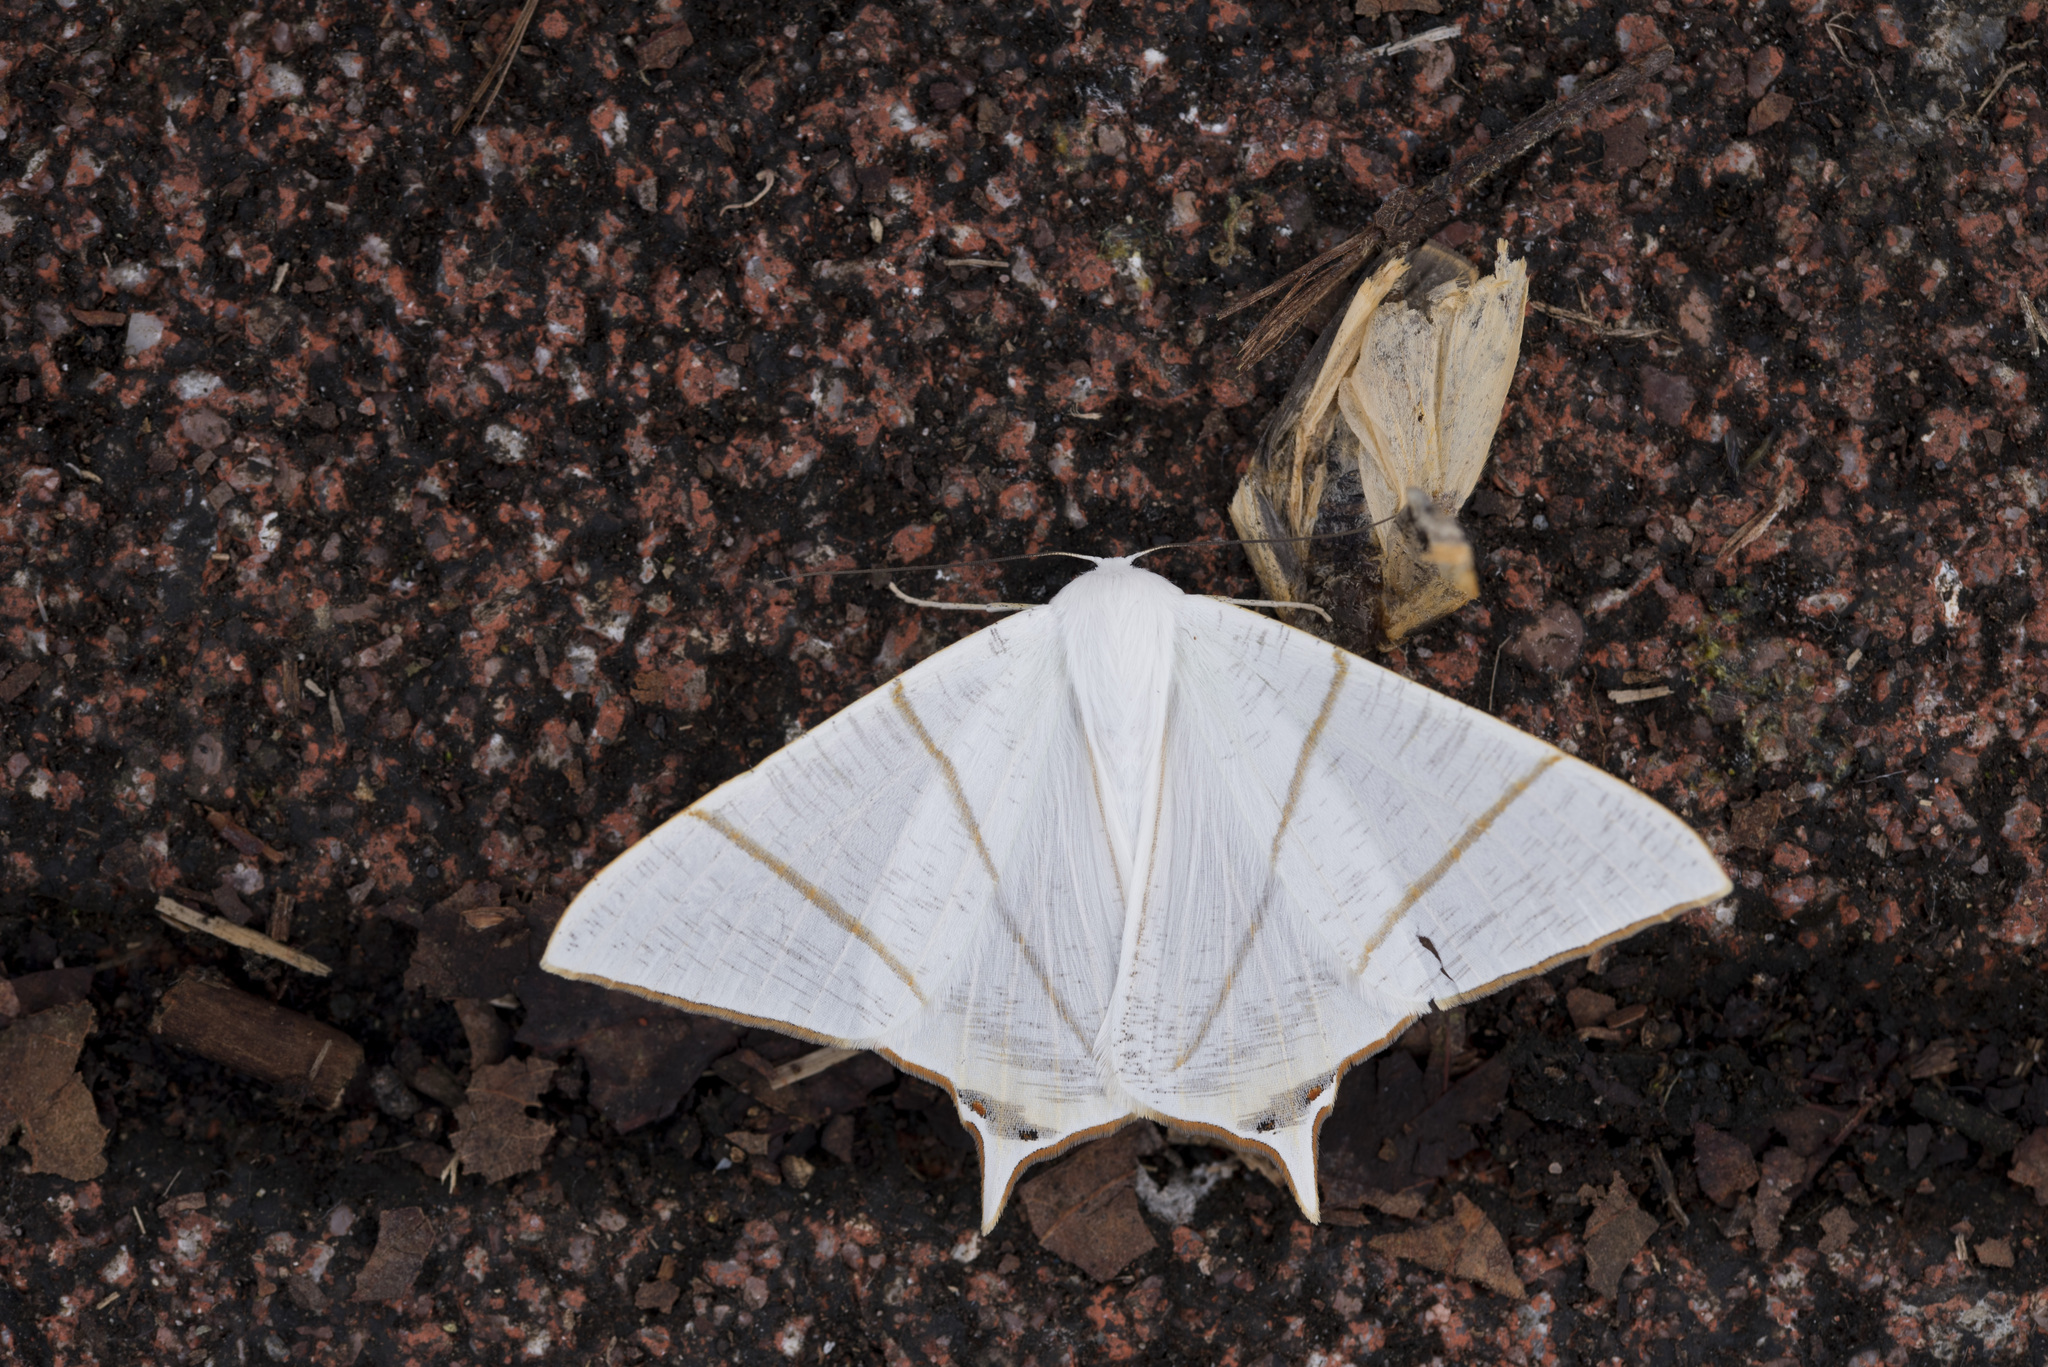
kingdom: Animalia
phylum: Arthropoda
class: Insecta
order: Lepidoptera
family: Geometridae
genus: Ourapteryx
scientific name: Ourapteryx changi
